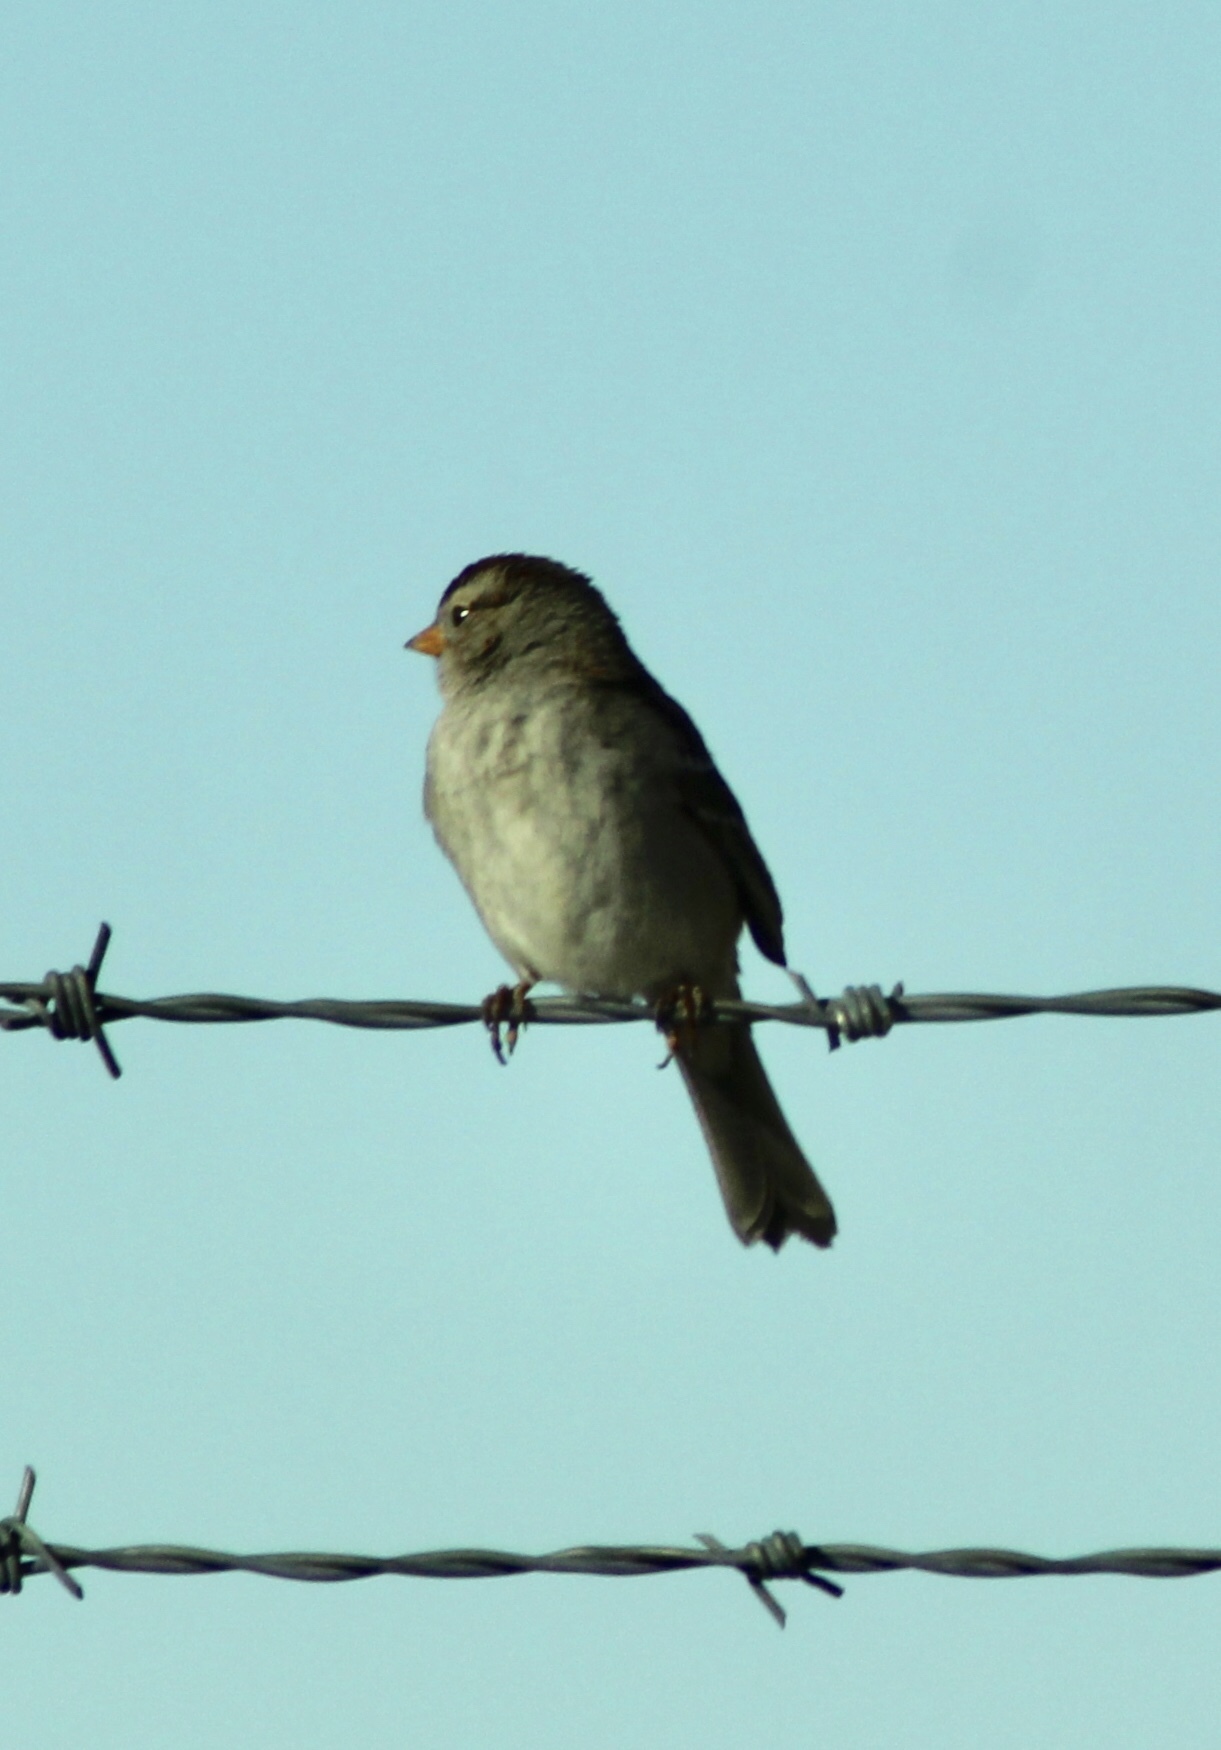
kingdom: Animalia
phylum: Chordata
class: Aves
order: Passeriformes
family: Passerellidae
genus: Zonotrichia
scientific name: Zonotrichia leucophrys
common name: White-crowned sparrow
